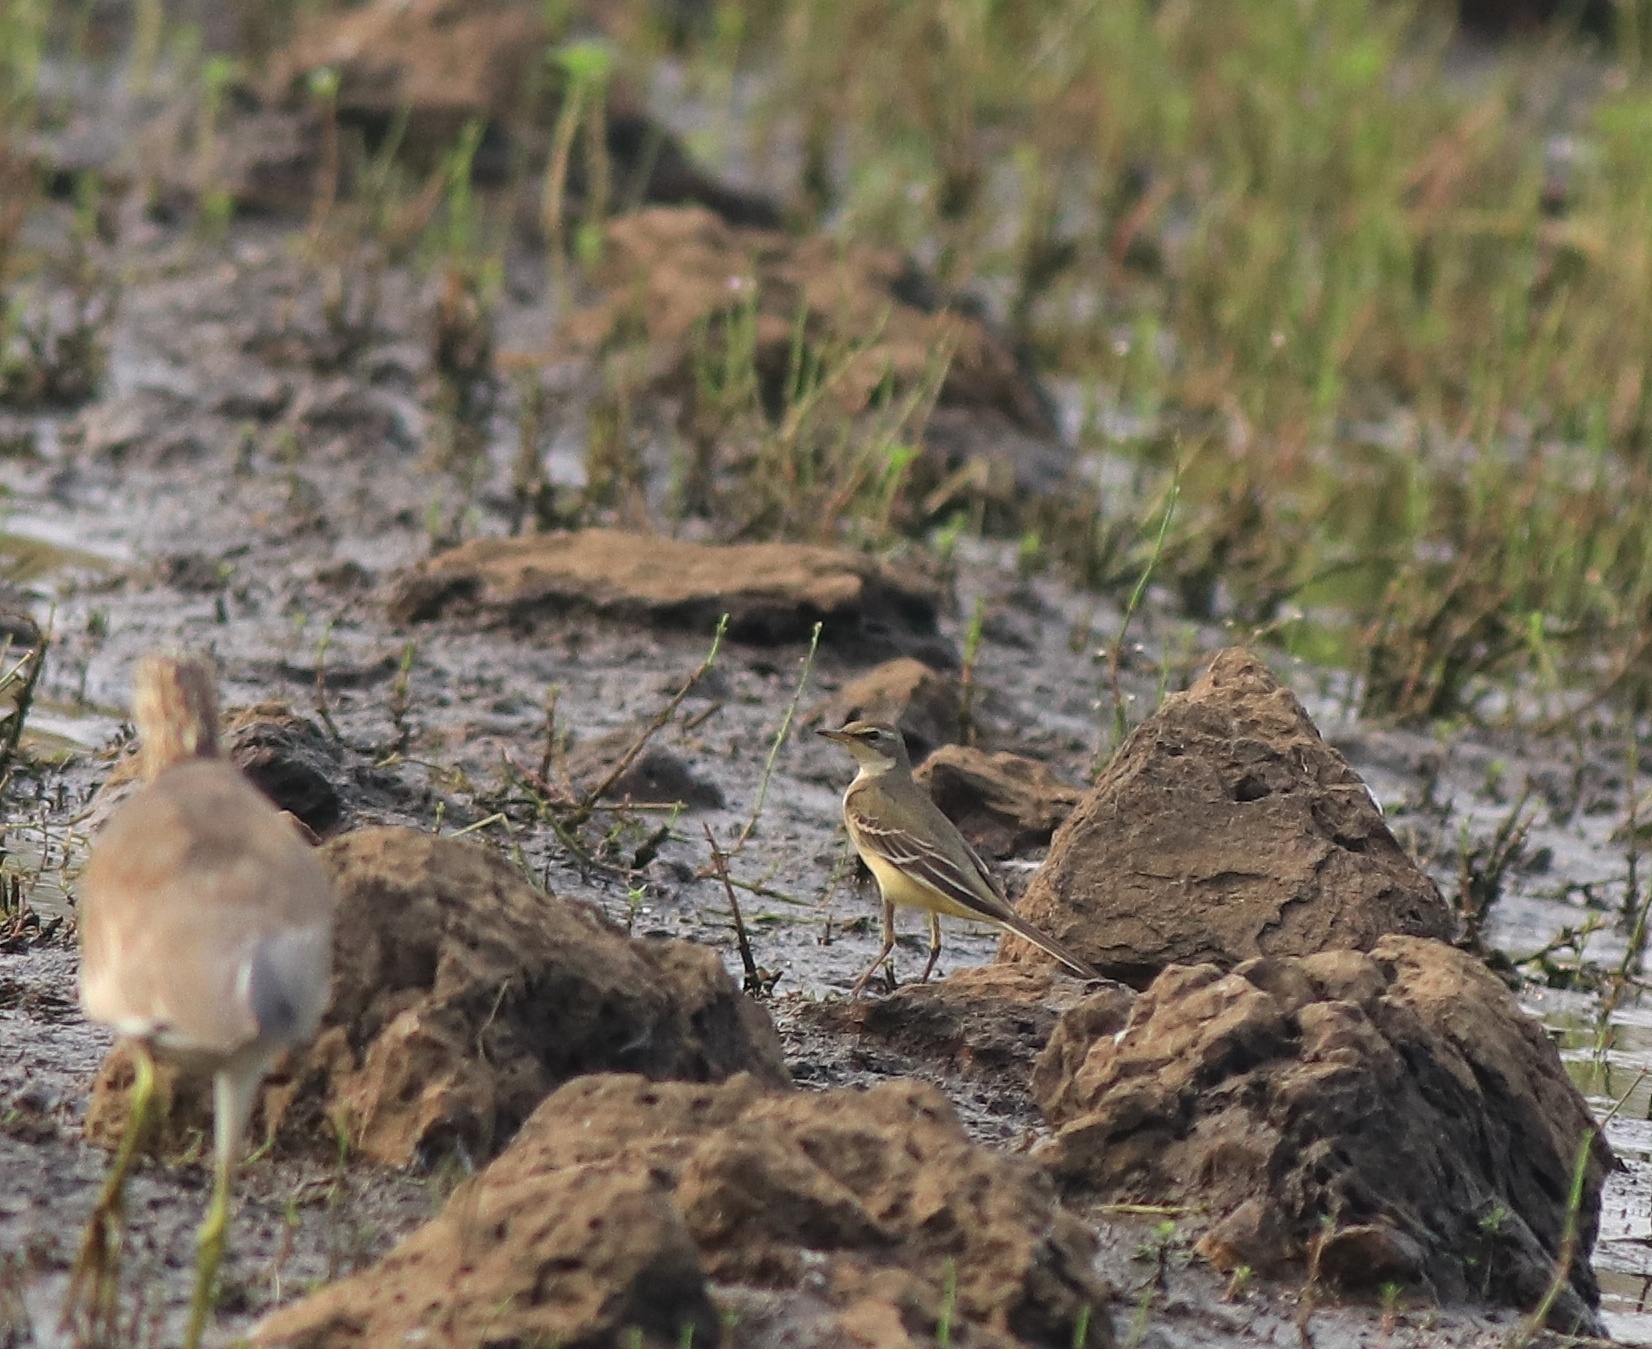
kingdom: Animalia
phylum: Chordata
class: Aves
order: Passeriformes
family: Motacillidae
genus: Motacilla
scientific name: Motacilla flava
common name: Western yellow wagtail
